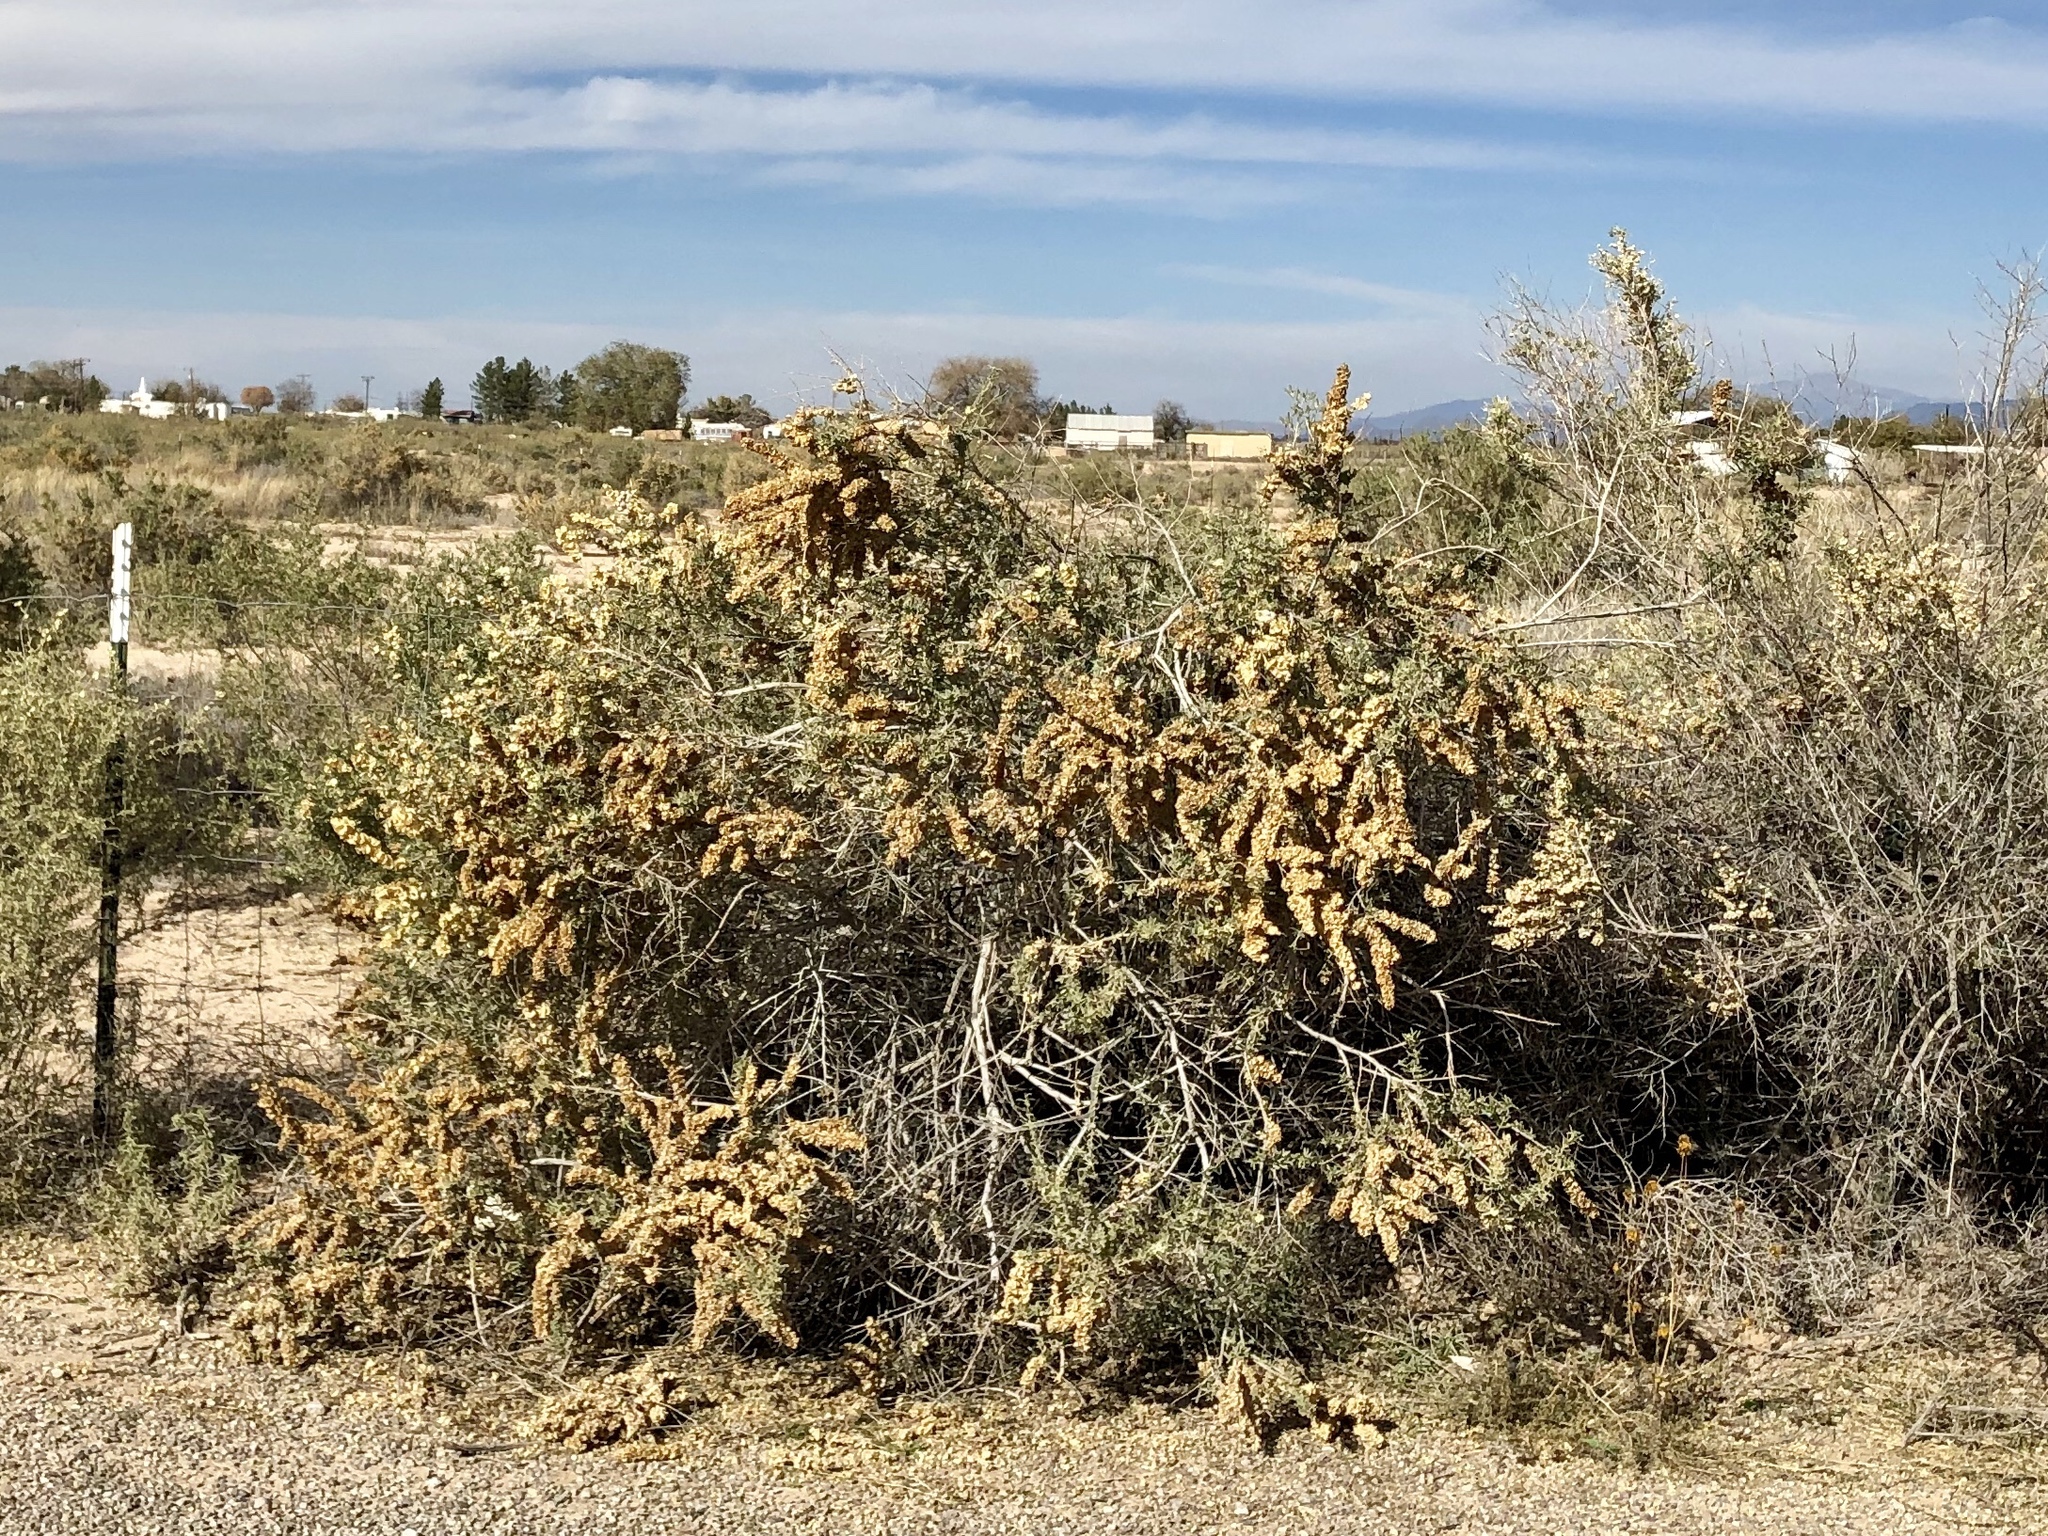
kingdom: Plantae
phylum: Tracheophyta
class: Magnoliopsida
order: Caryophyllales
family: Amaranthaceae
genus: Atriplex
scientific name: Atriplex canescens
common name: Four-wing saltbush
